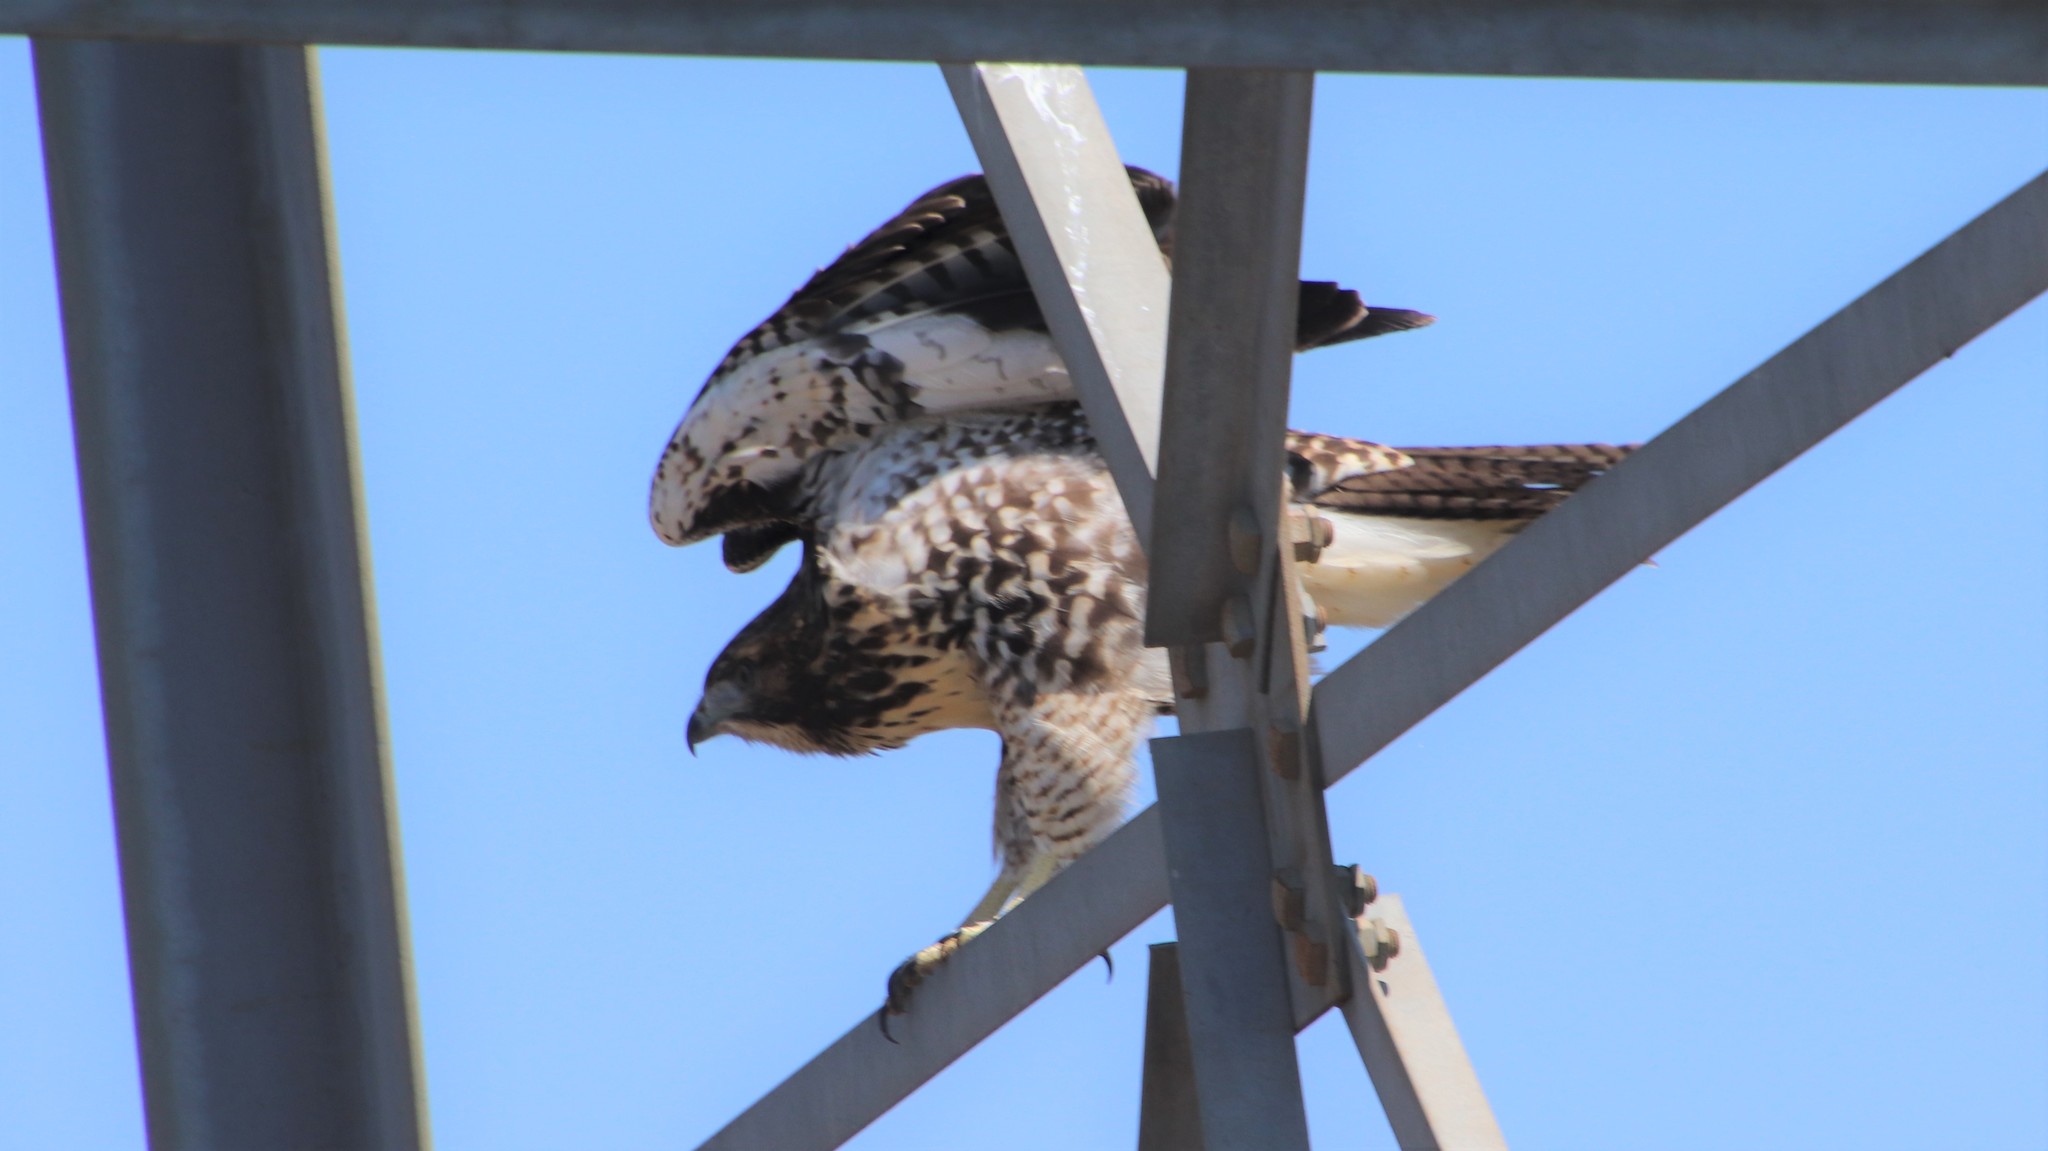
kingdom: Animalia
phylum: Chordata
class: Aves
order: Accipitriformes
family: Accipitridae
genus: Buteo
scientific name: Buteo jamaicensis
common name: Red-tailed hawk
